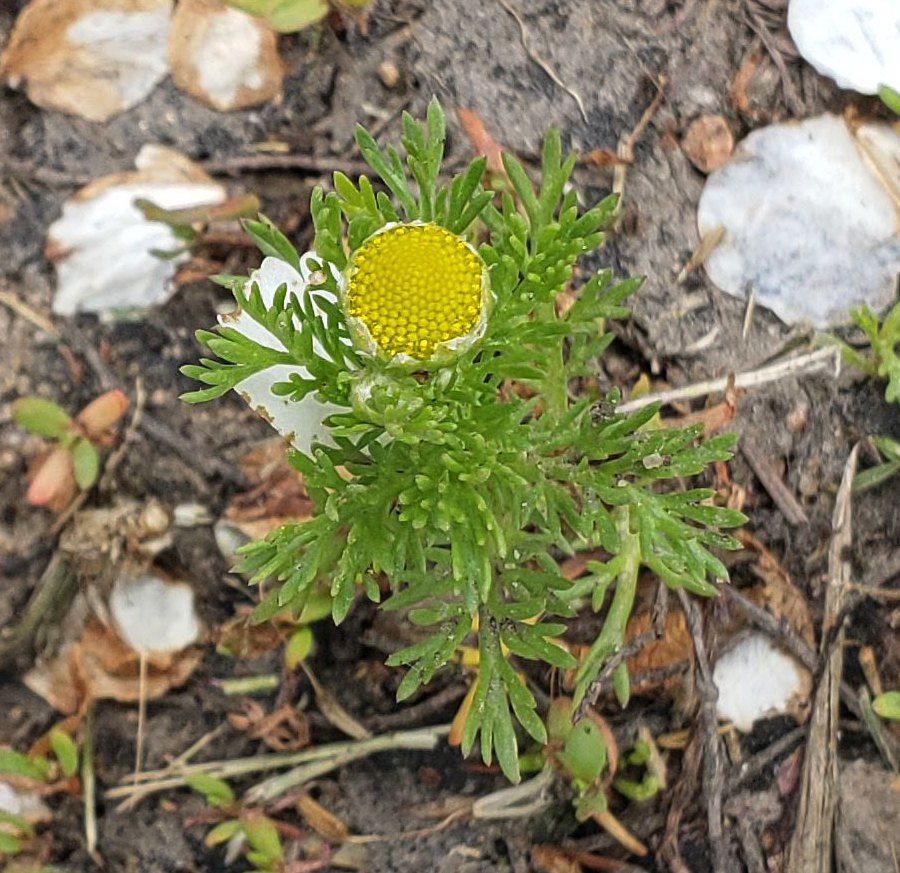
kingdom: Plantae
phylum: Tracheophyta
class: Magnoliopsida
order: Asterales
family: Asteraceae
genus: Matricaria
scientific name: Matricaria discoidea
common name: Disc mayweed
